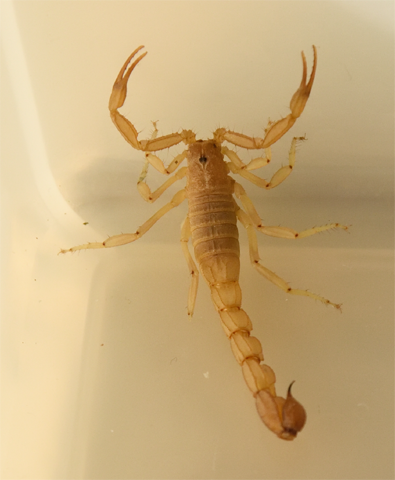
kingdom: Animalia
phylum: Arthropoda
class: Arachnida
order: Scorpiones
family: Vaejovidae
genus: Paravaejovis
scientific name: Paravaejovis waeringi
